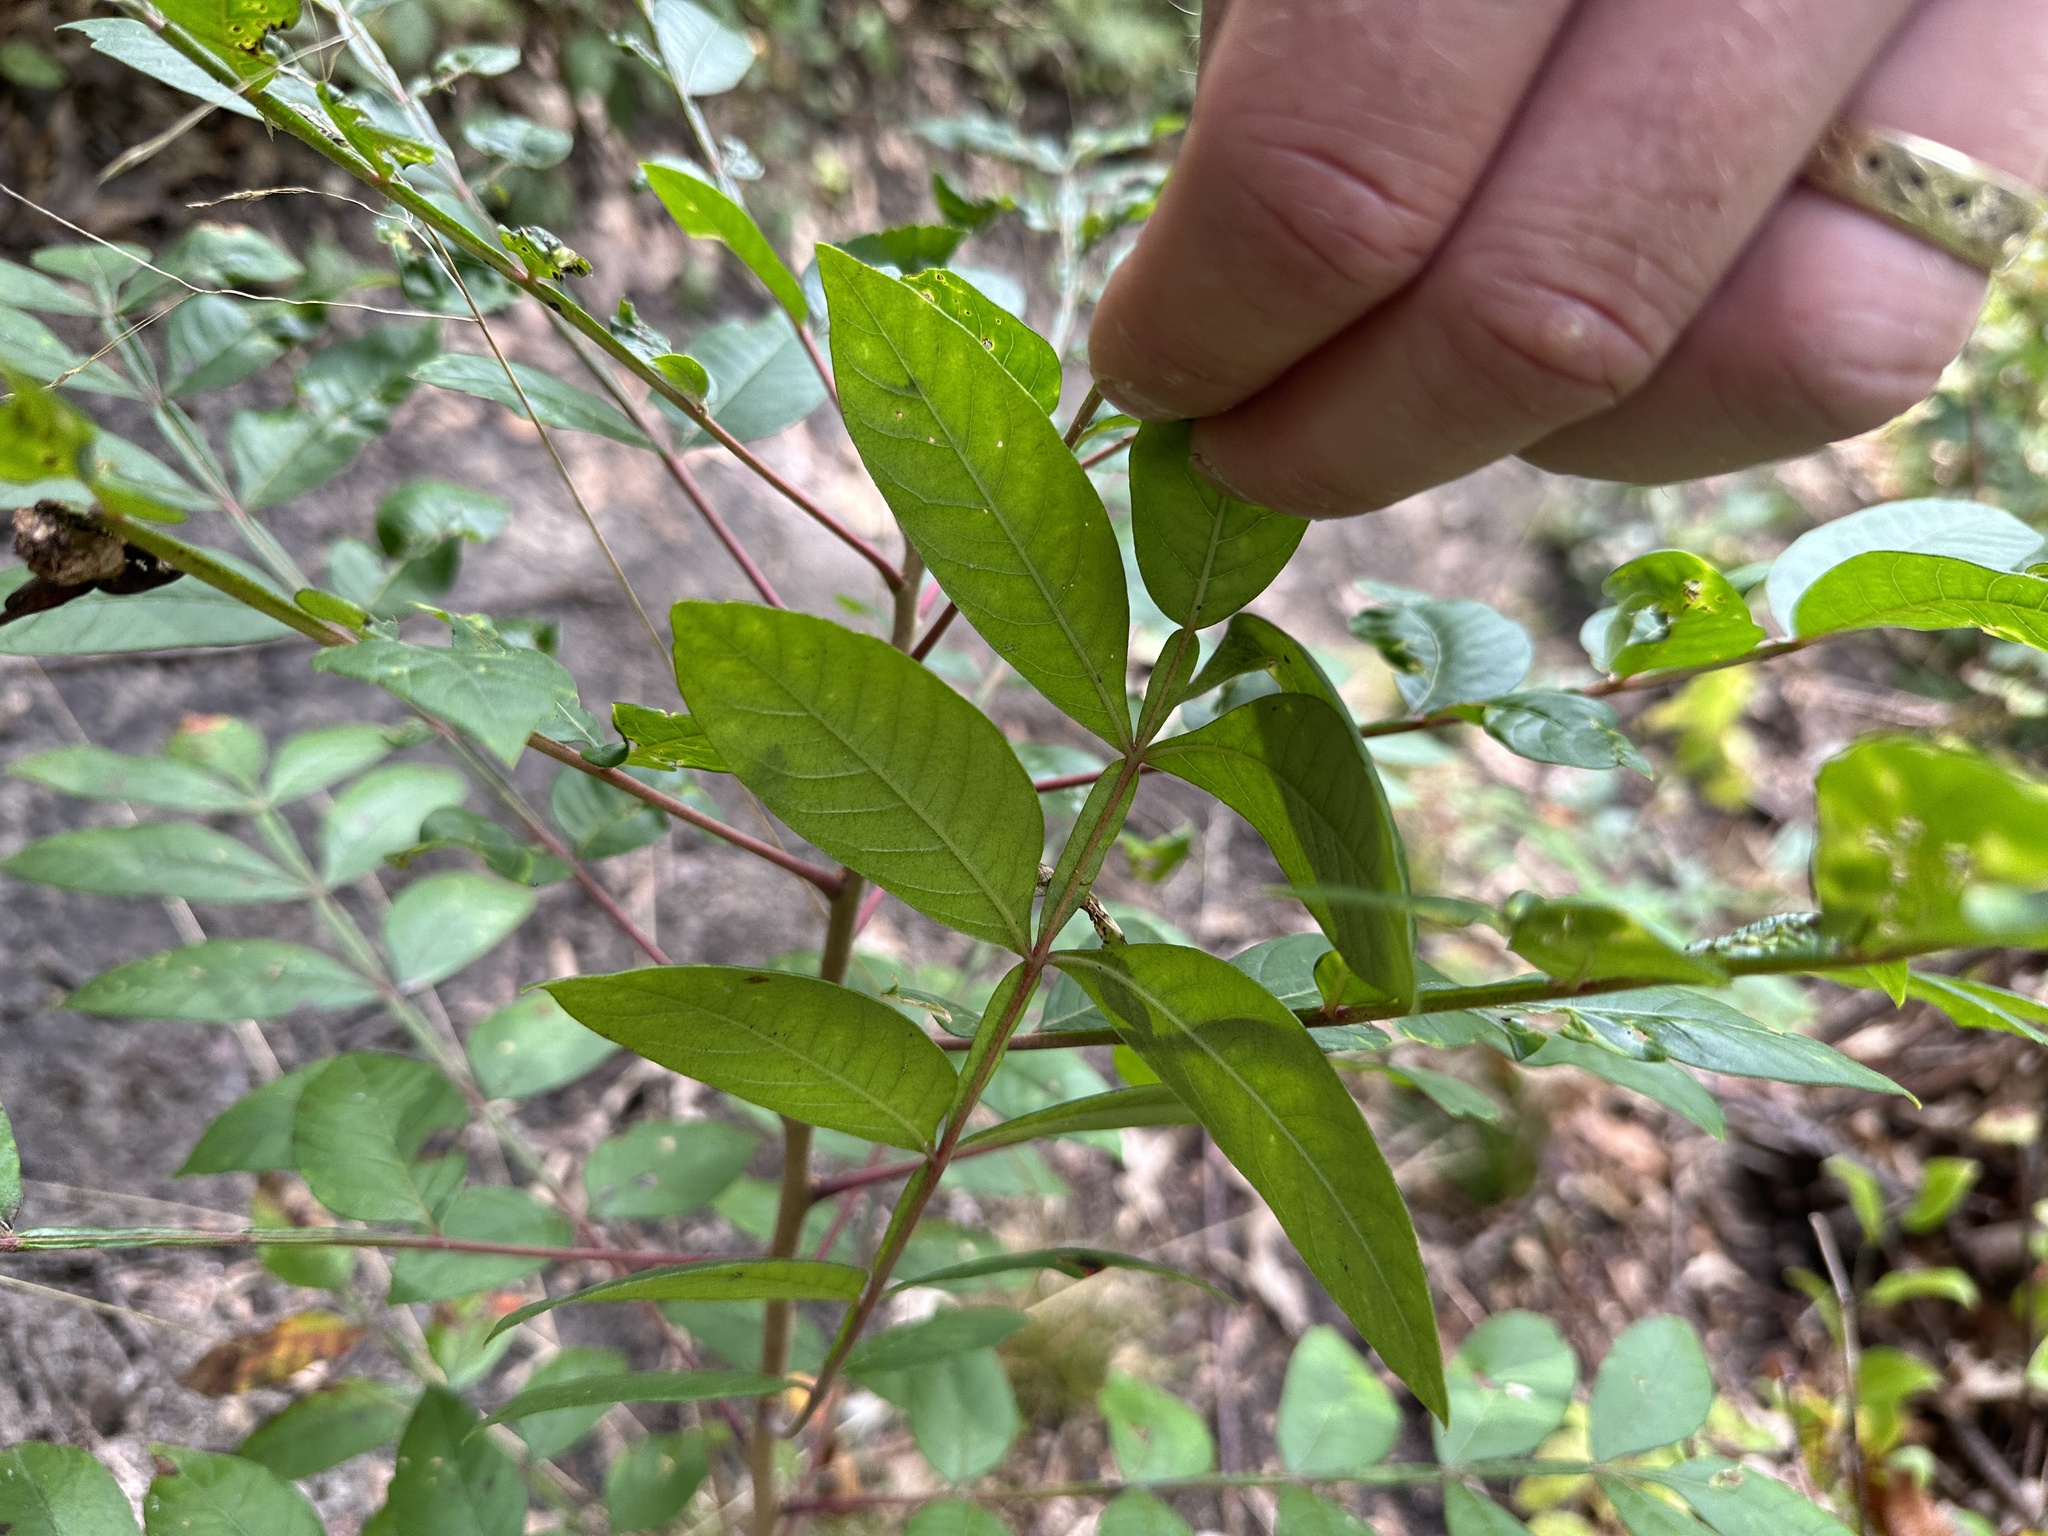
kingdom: Plantae
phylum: Tracheophyta
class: Magnoliopsida
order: Sapindales
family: Anacardiaceae
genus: Rhus
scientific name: Rhus copallina
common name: Shining sumac
